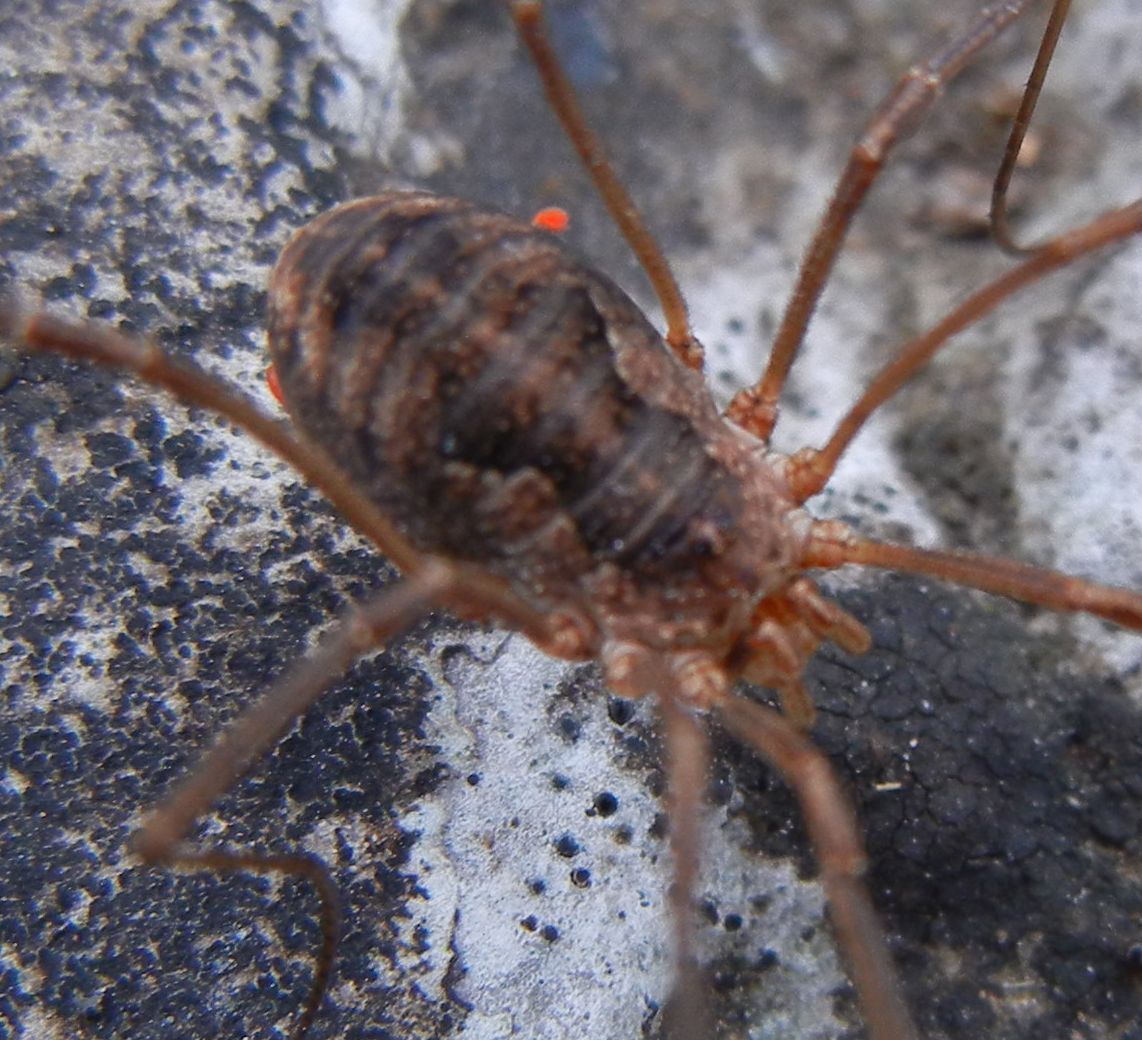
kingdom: Animalia
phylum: Arthropoda
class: Arachnida
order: Opiliones
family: Phalangiidae
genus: Phalangium
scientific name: Phalangium opilio
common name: Daddy longleg
